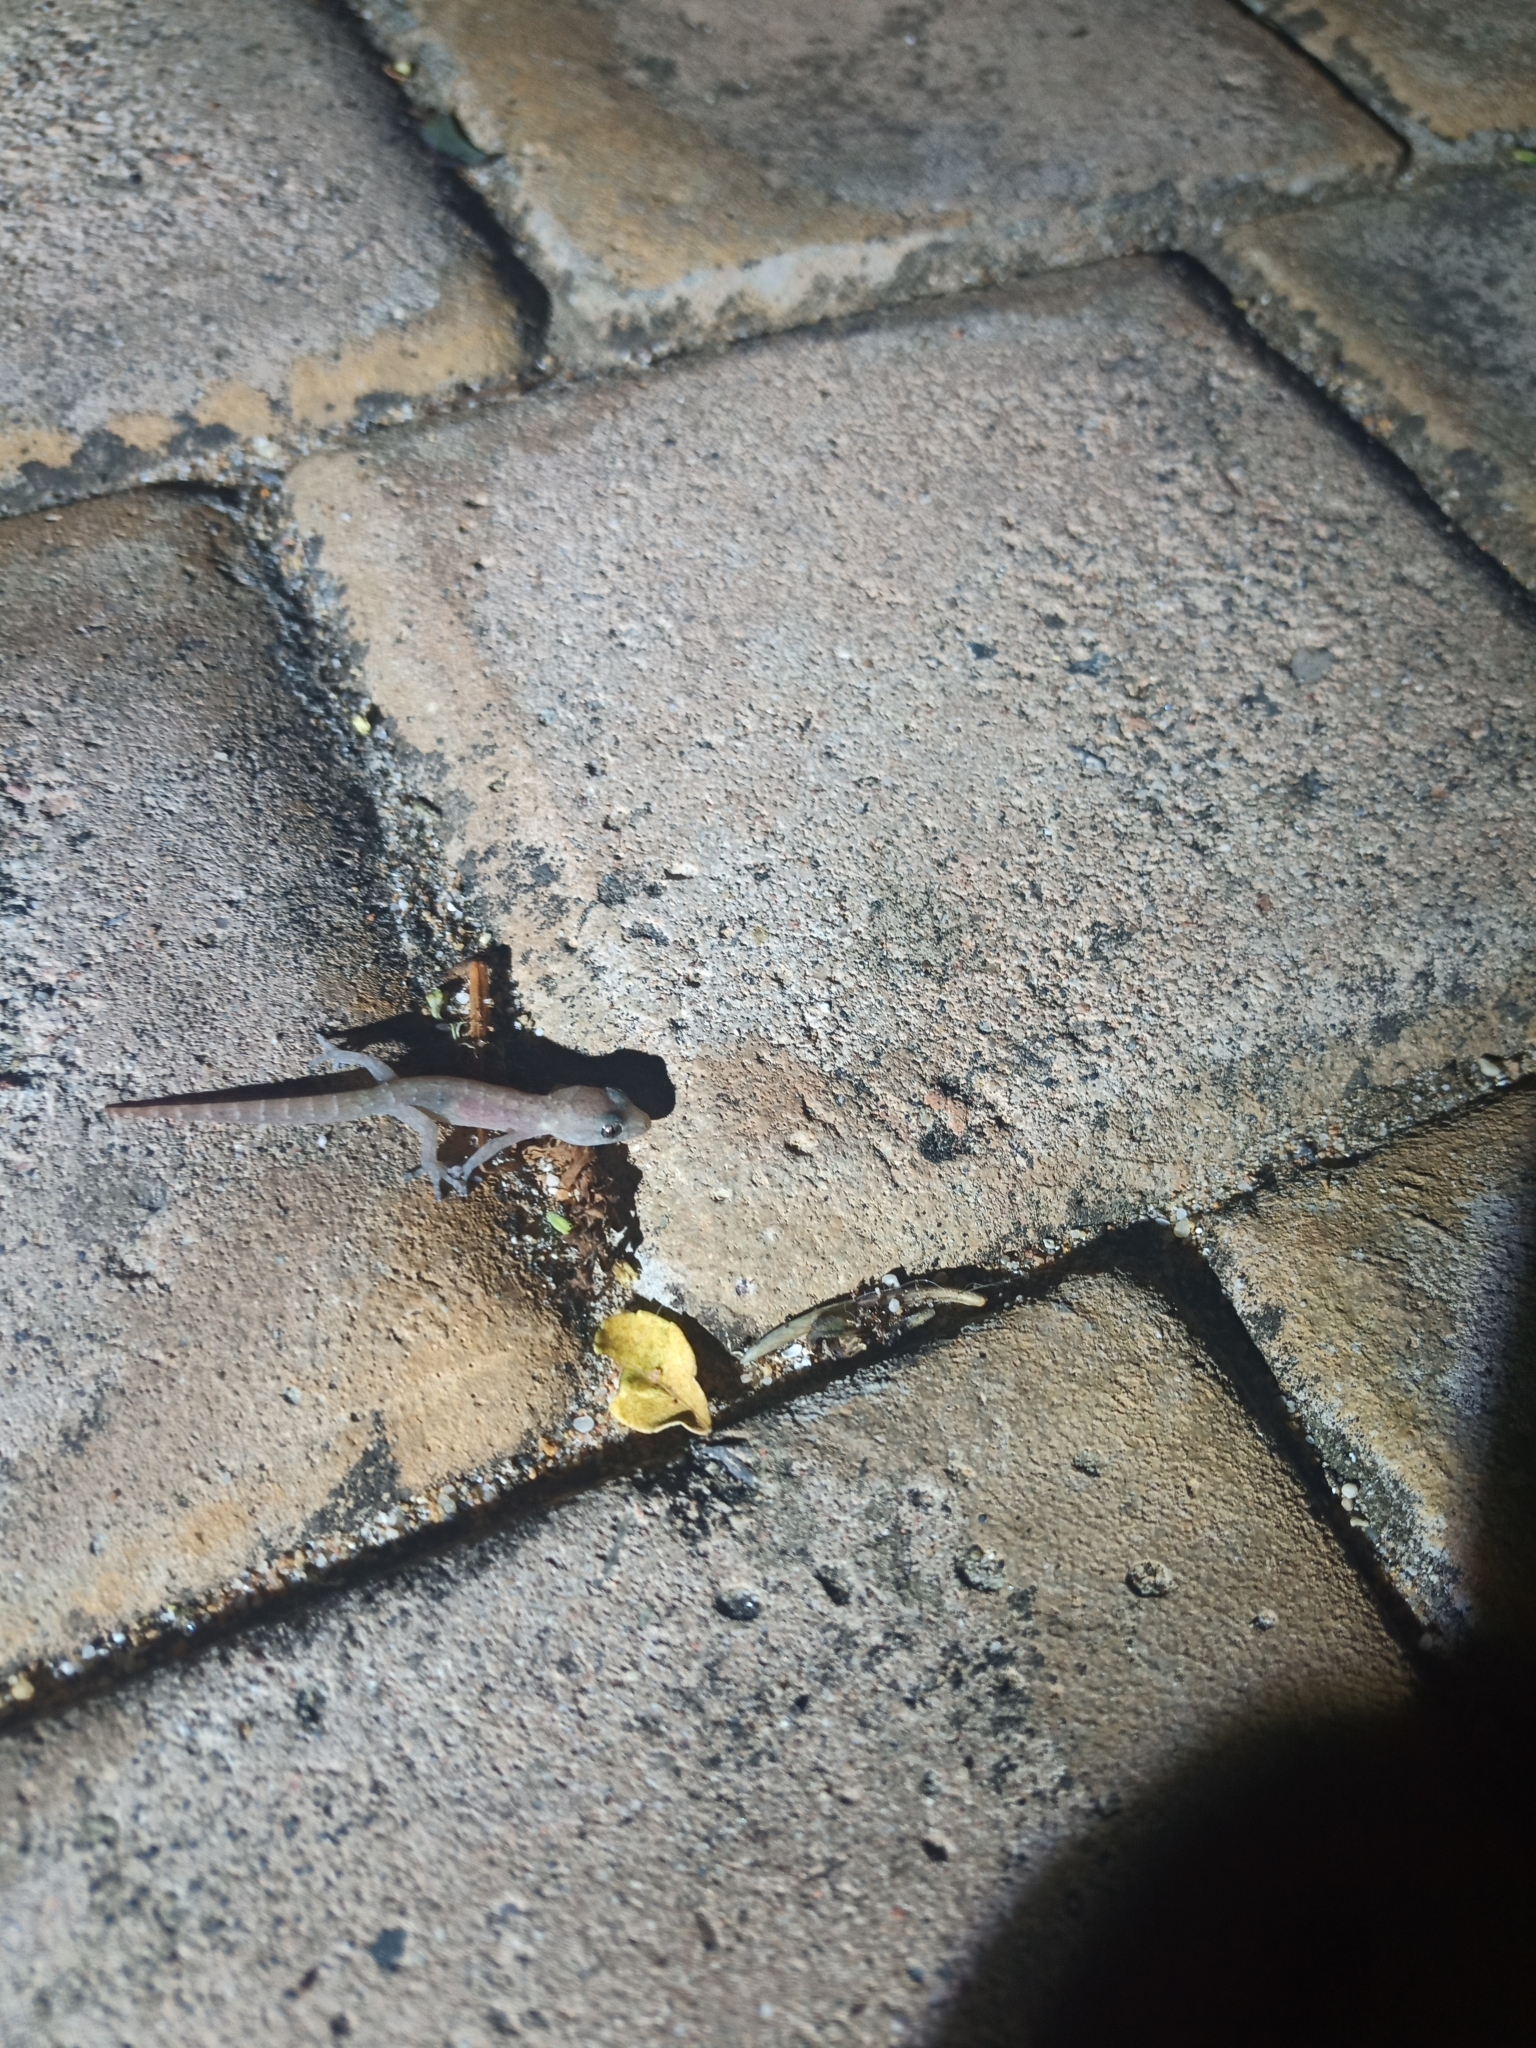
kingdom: Animalia
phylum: Chordata
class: Squamata
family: Gekkonidae
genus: Afrogecko
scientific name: Afrogecko porphyreus
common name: Marbled leaf-toed gecko
